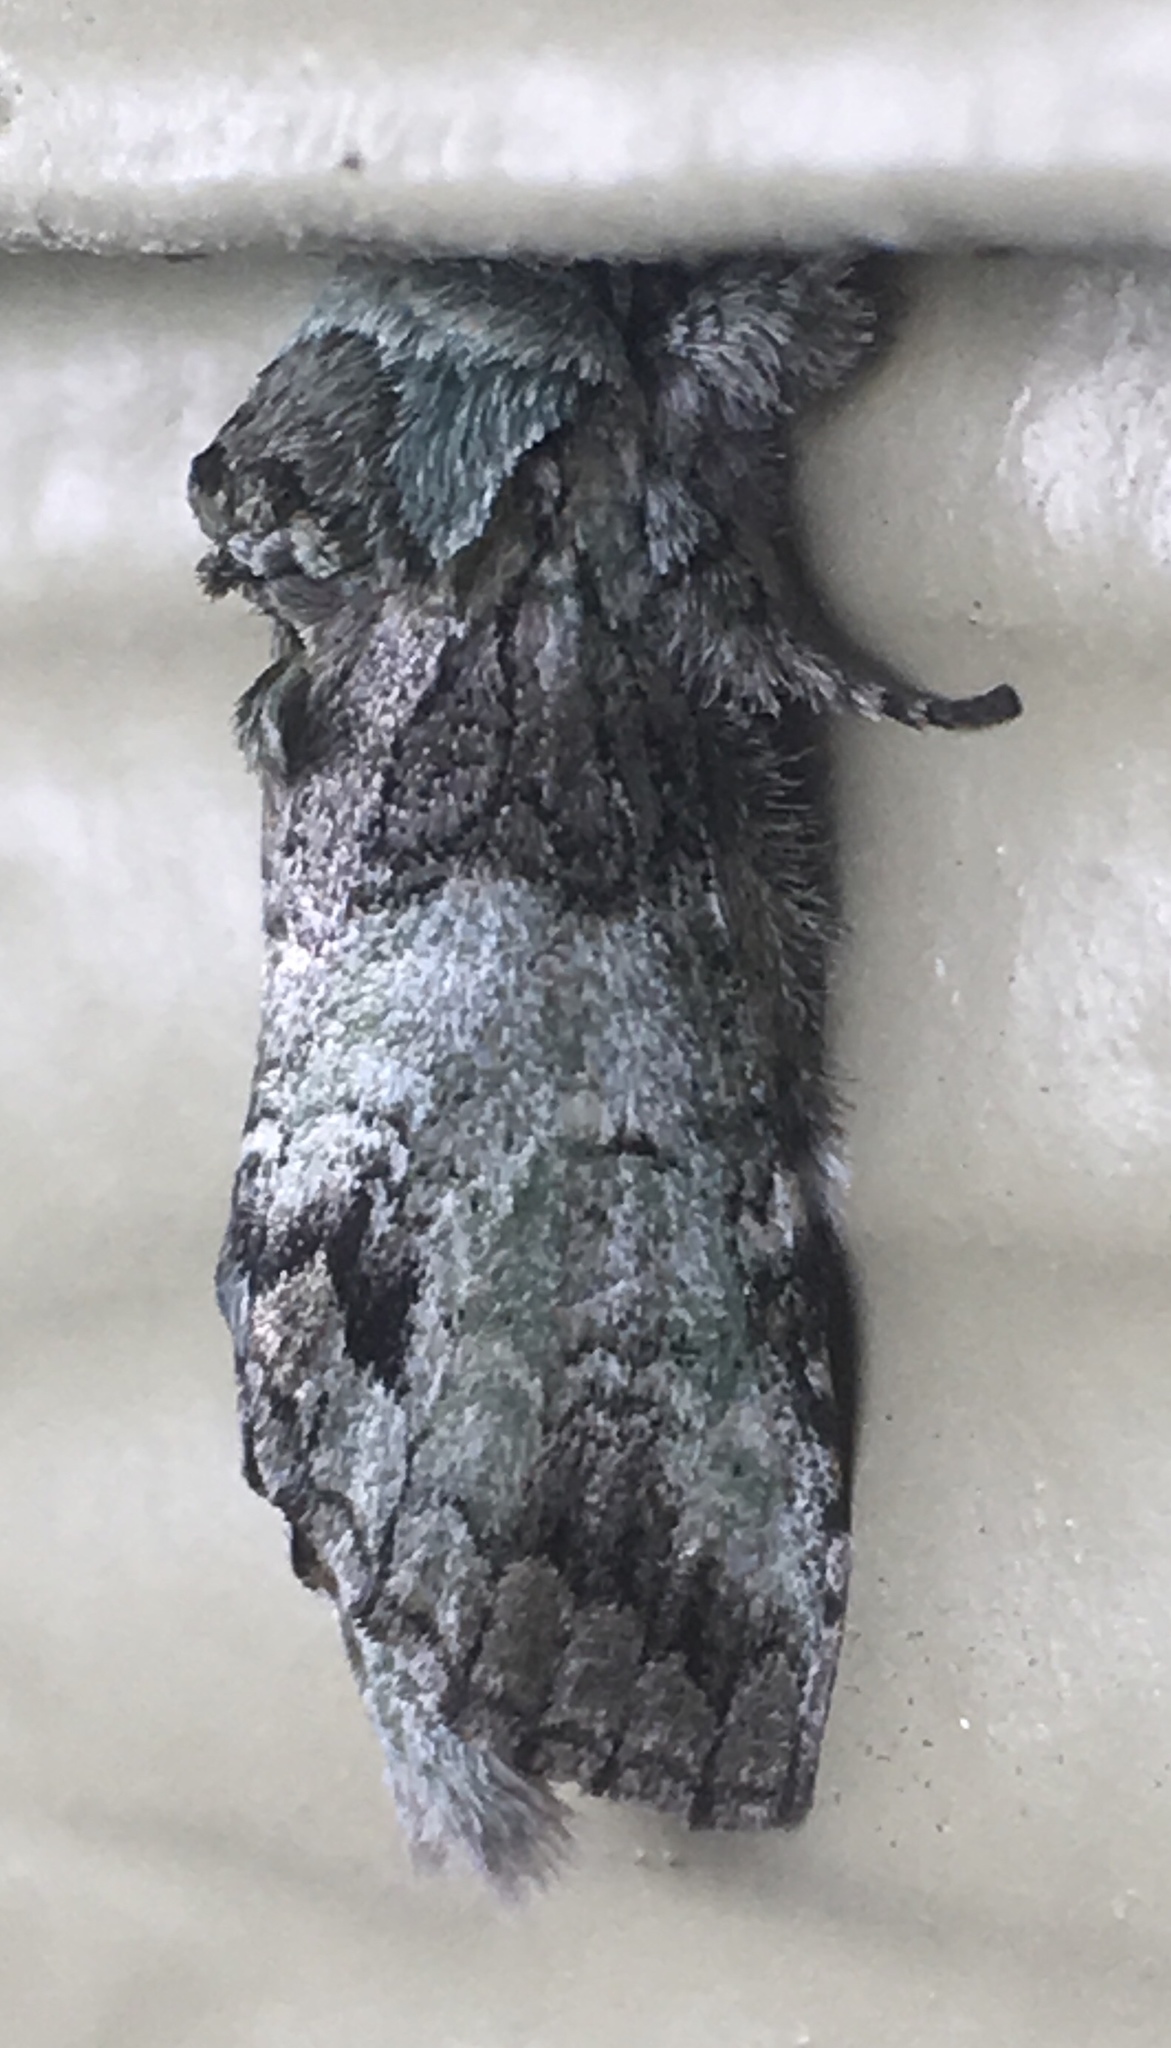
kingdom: Animalia
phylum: Arthropoda
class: Insecta
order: Lepidoptera
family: Notodontidae
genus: Macrurocampa
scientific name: Macrurocampa marthesia
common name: Mottled prominent
